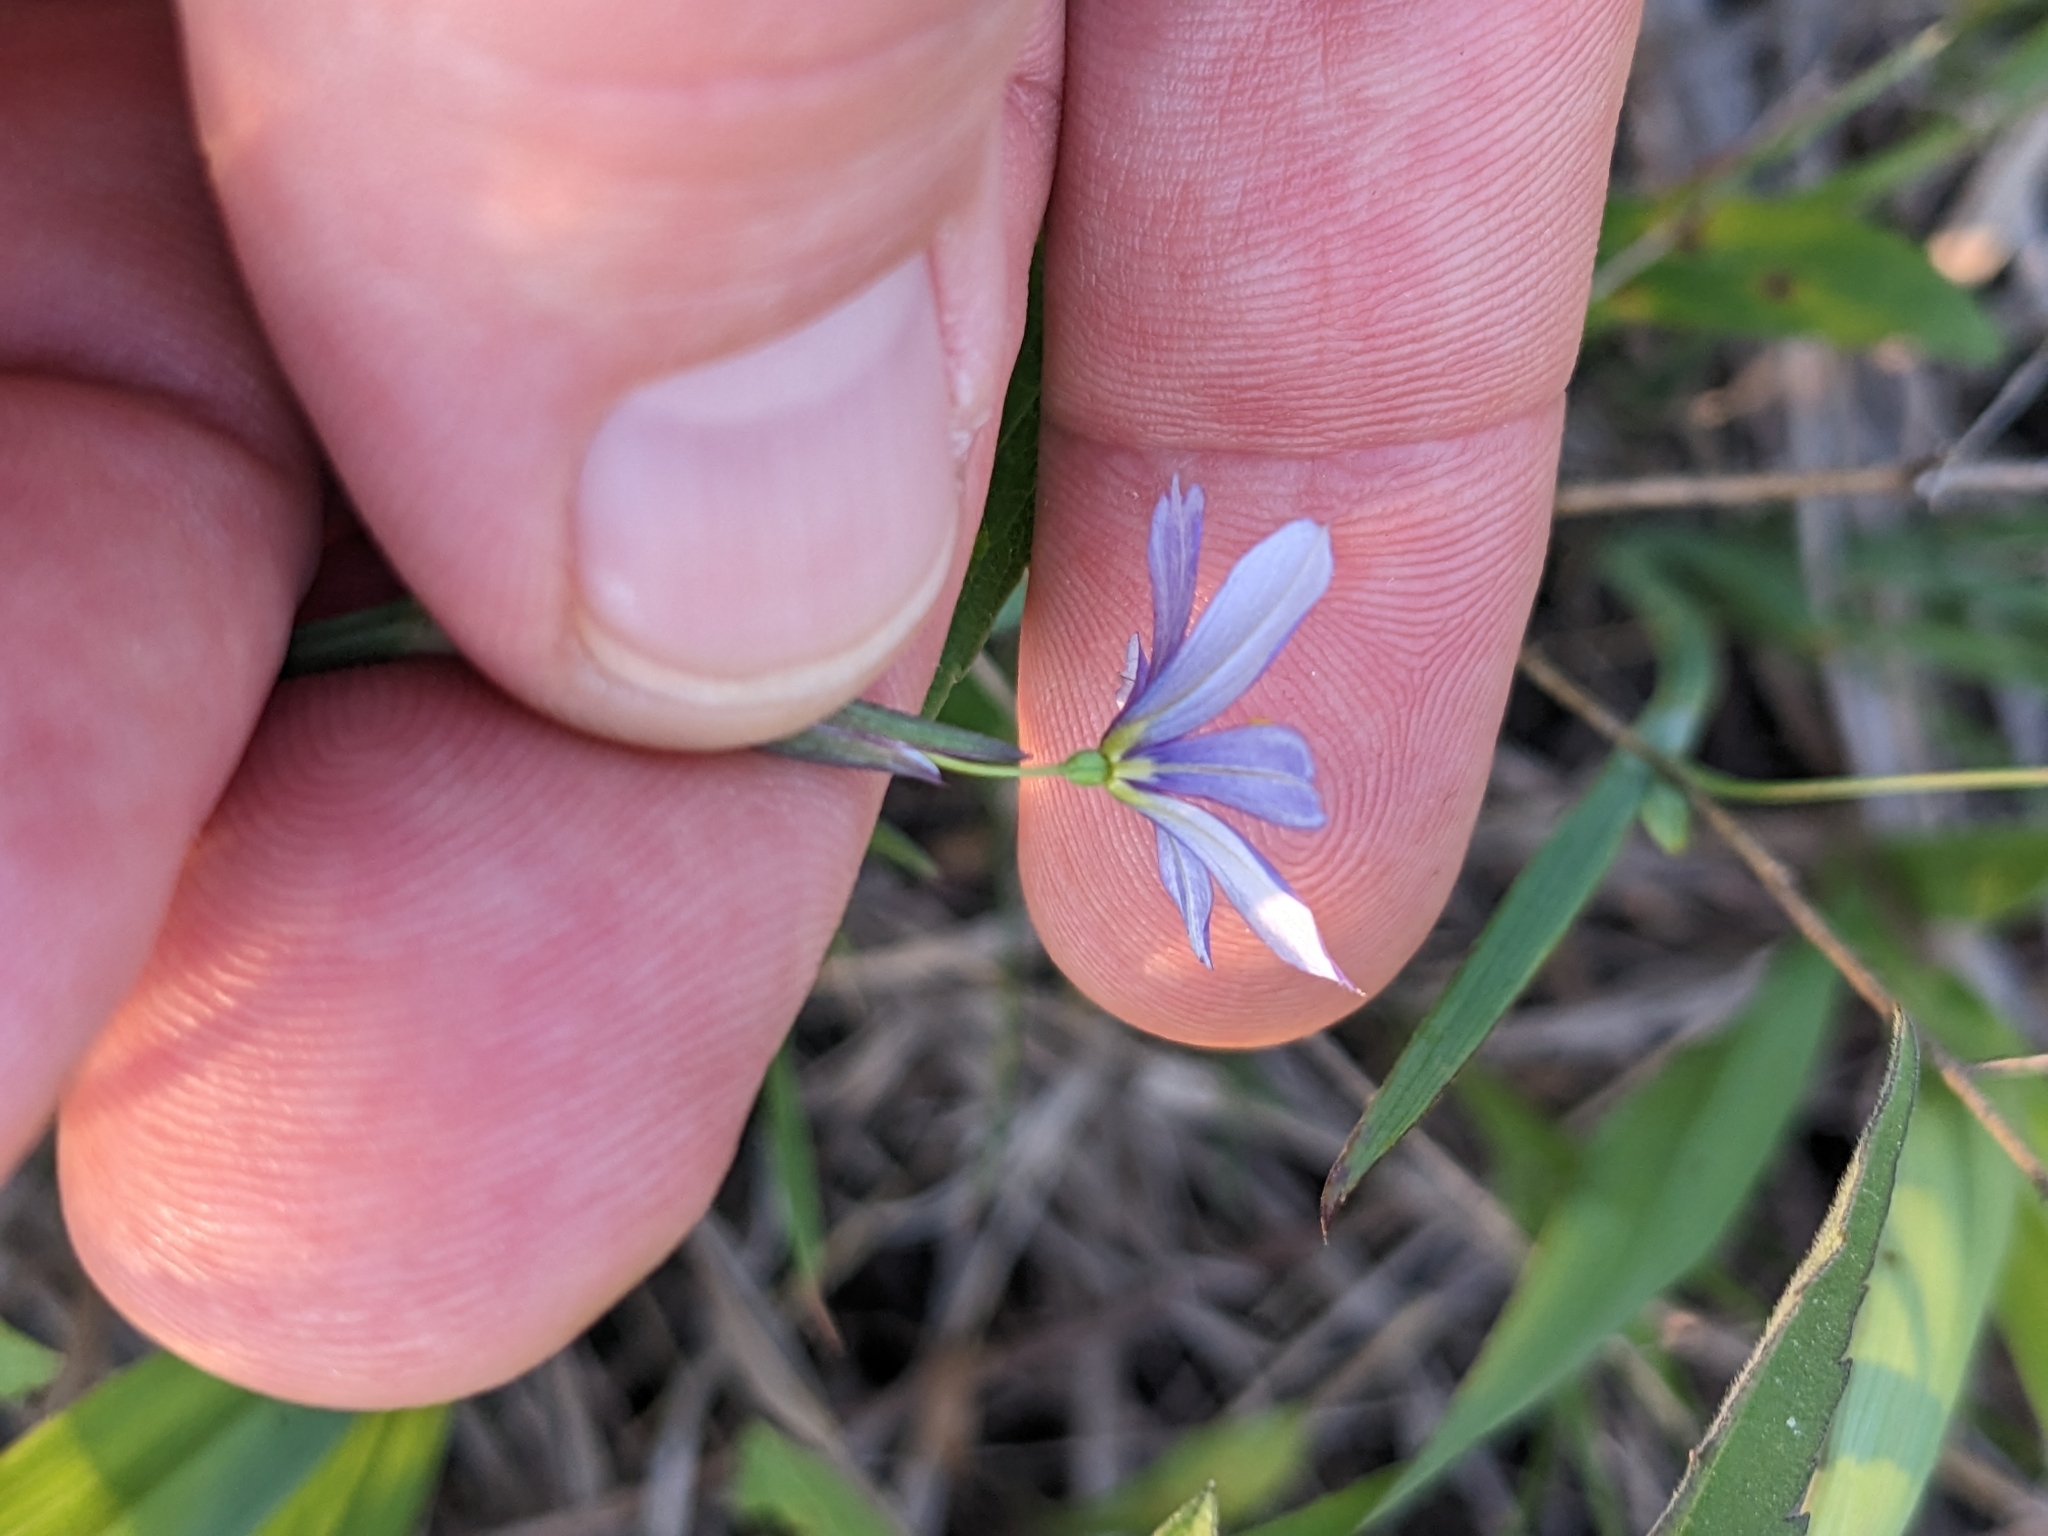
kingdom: Plantae
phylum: Tracheophyta
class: Liliopsida
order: Asparagales
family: Iridaceae
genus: Sisyrinchium
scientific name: Sisyrinchium angustifolium
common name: Narrow-leaf blue-eyed-grass
